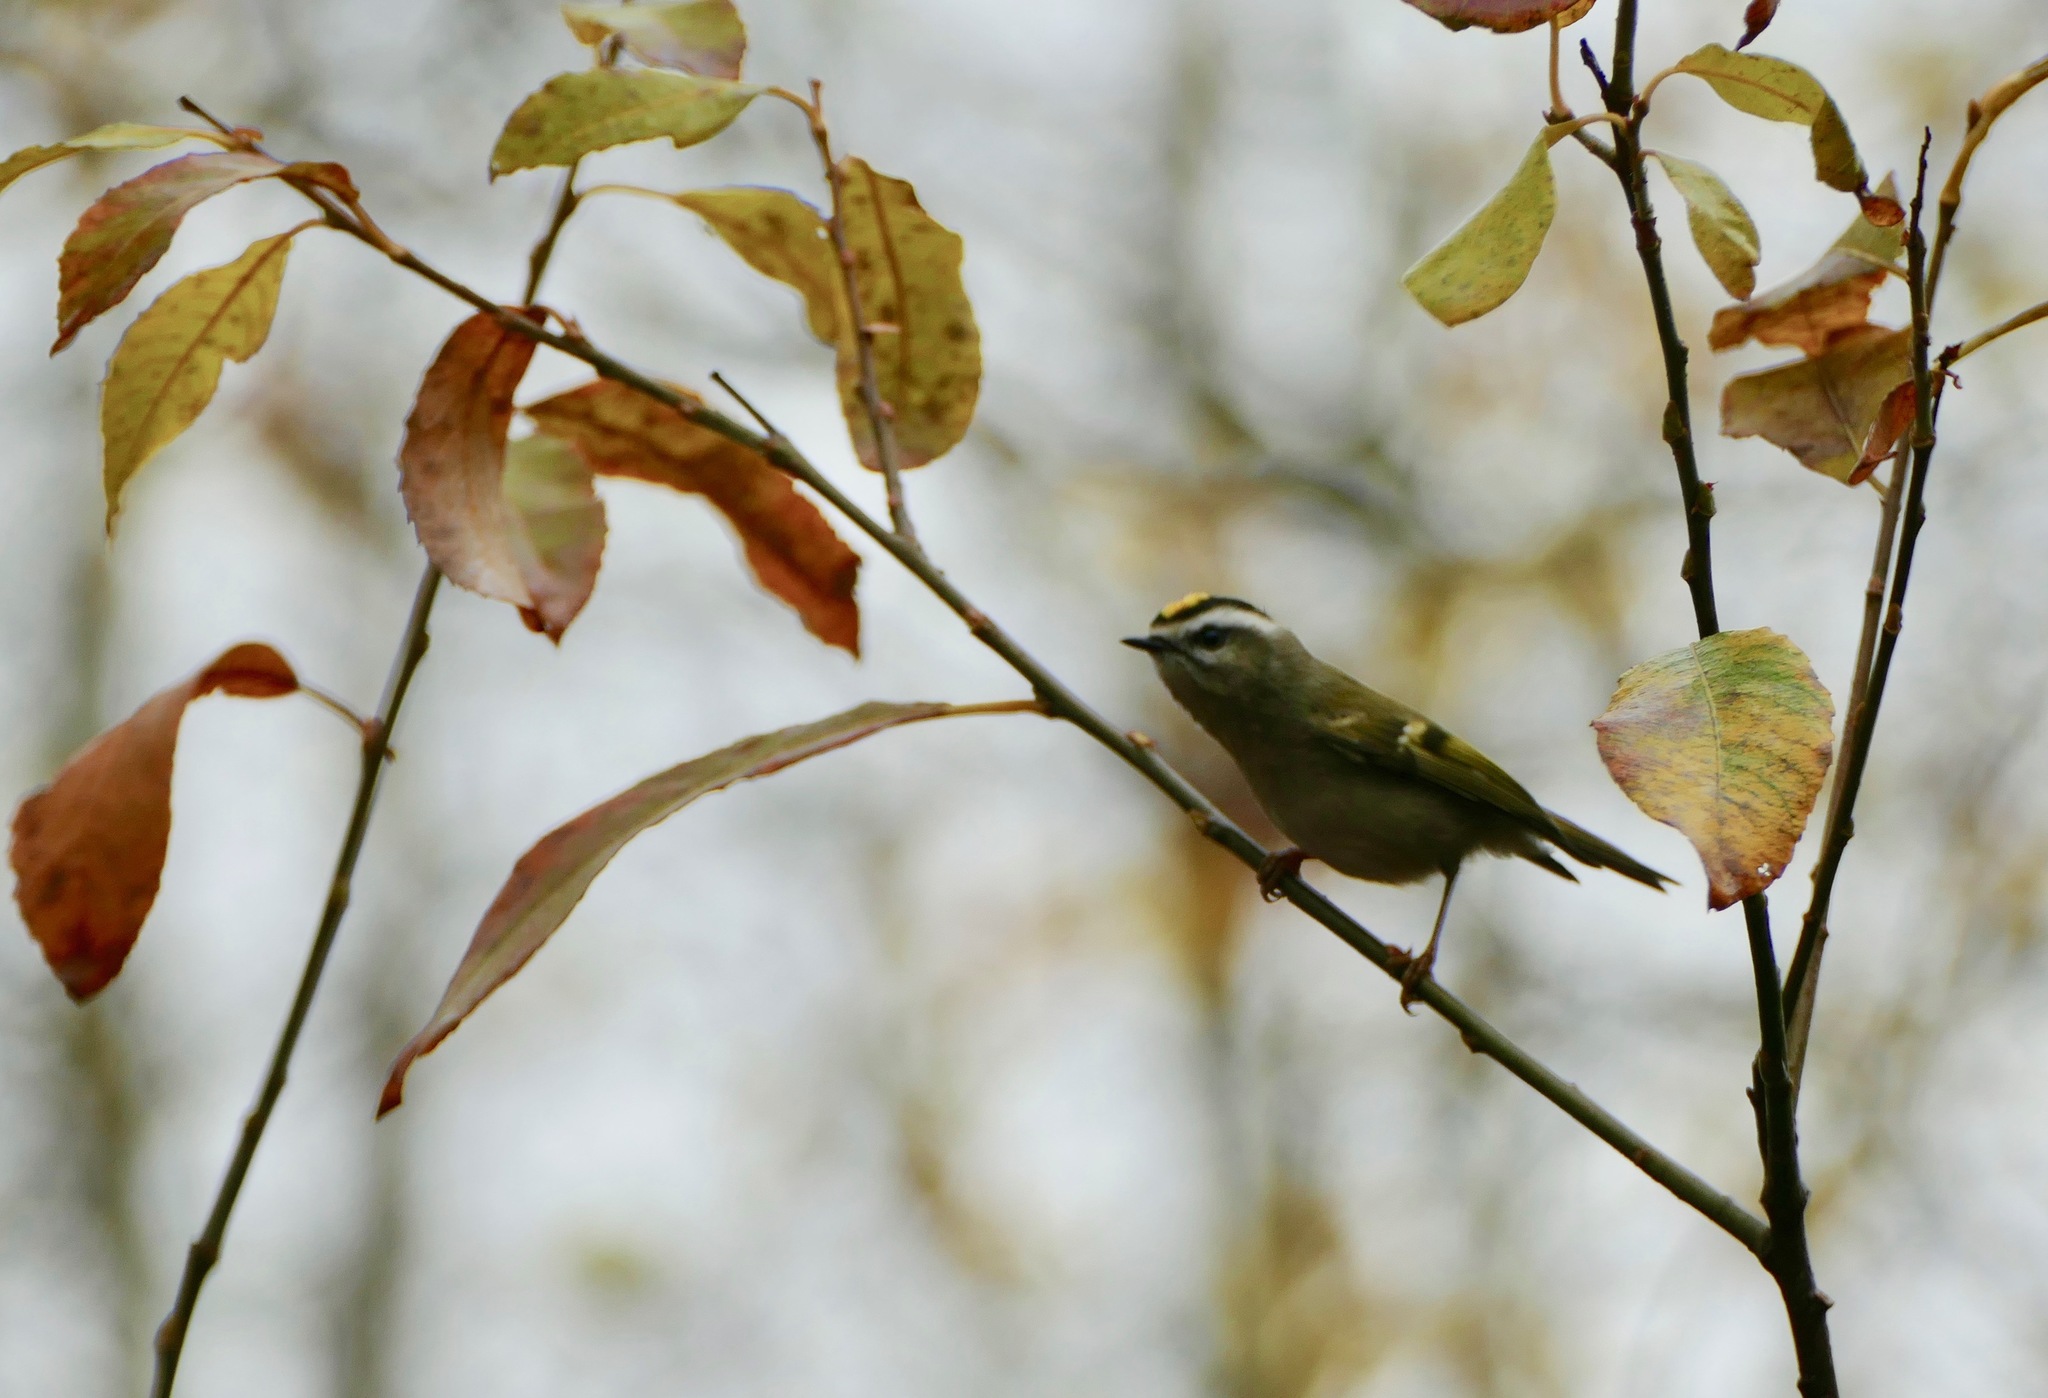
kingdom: Animalia
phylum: Chordata
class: Aves
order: Passeriformes
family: Regulidae
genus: Regulus
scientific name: Regulus satrapa
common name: Golden-crowned kinglet
